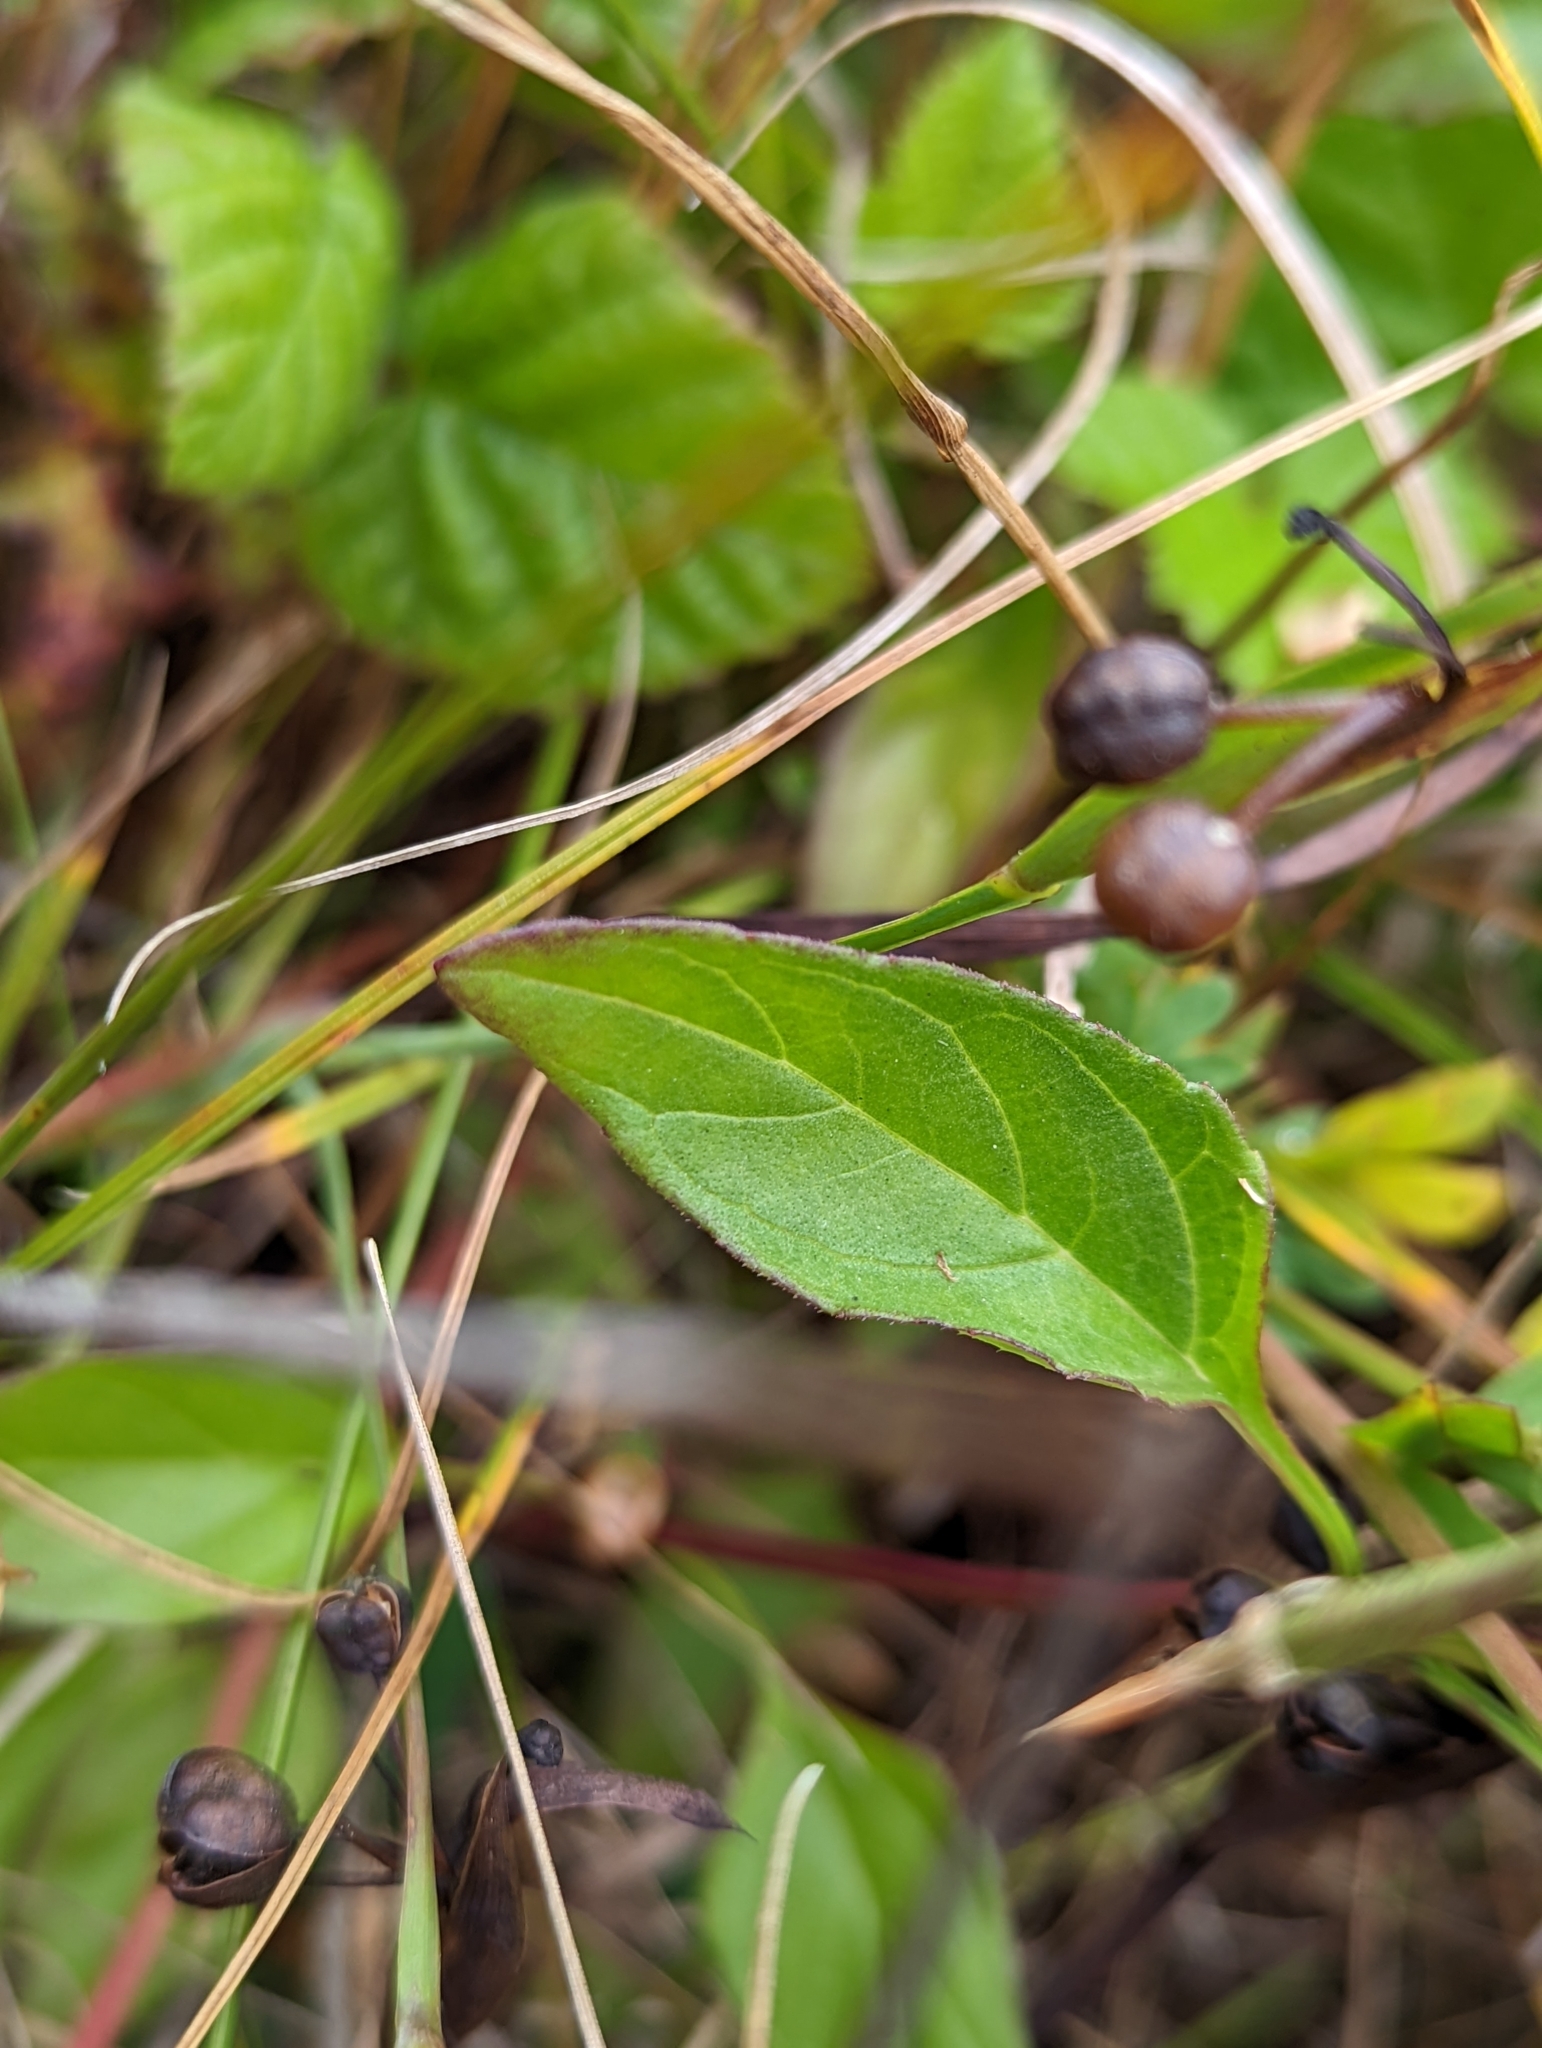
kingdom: Plantae
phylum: Tracheophyta
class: Magnoliopsida
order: Lamiales
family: Lamiaceae
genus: Prunella
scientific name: Prunella vulgaris
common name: Heal-all
